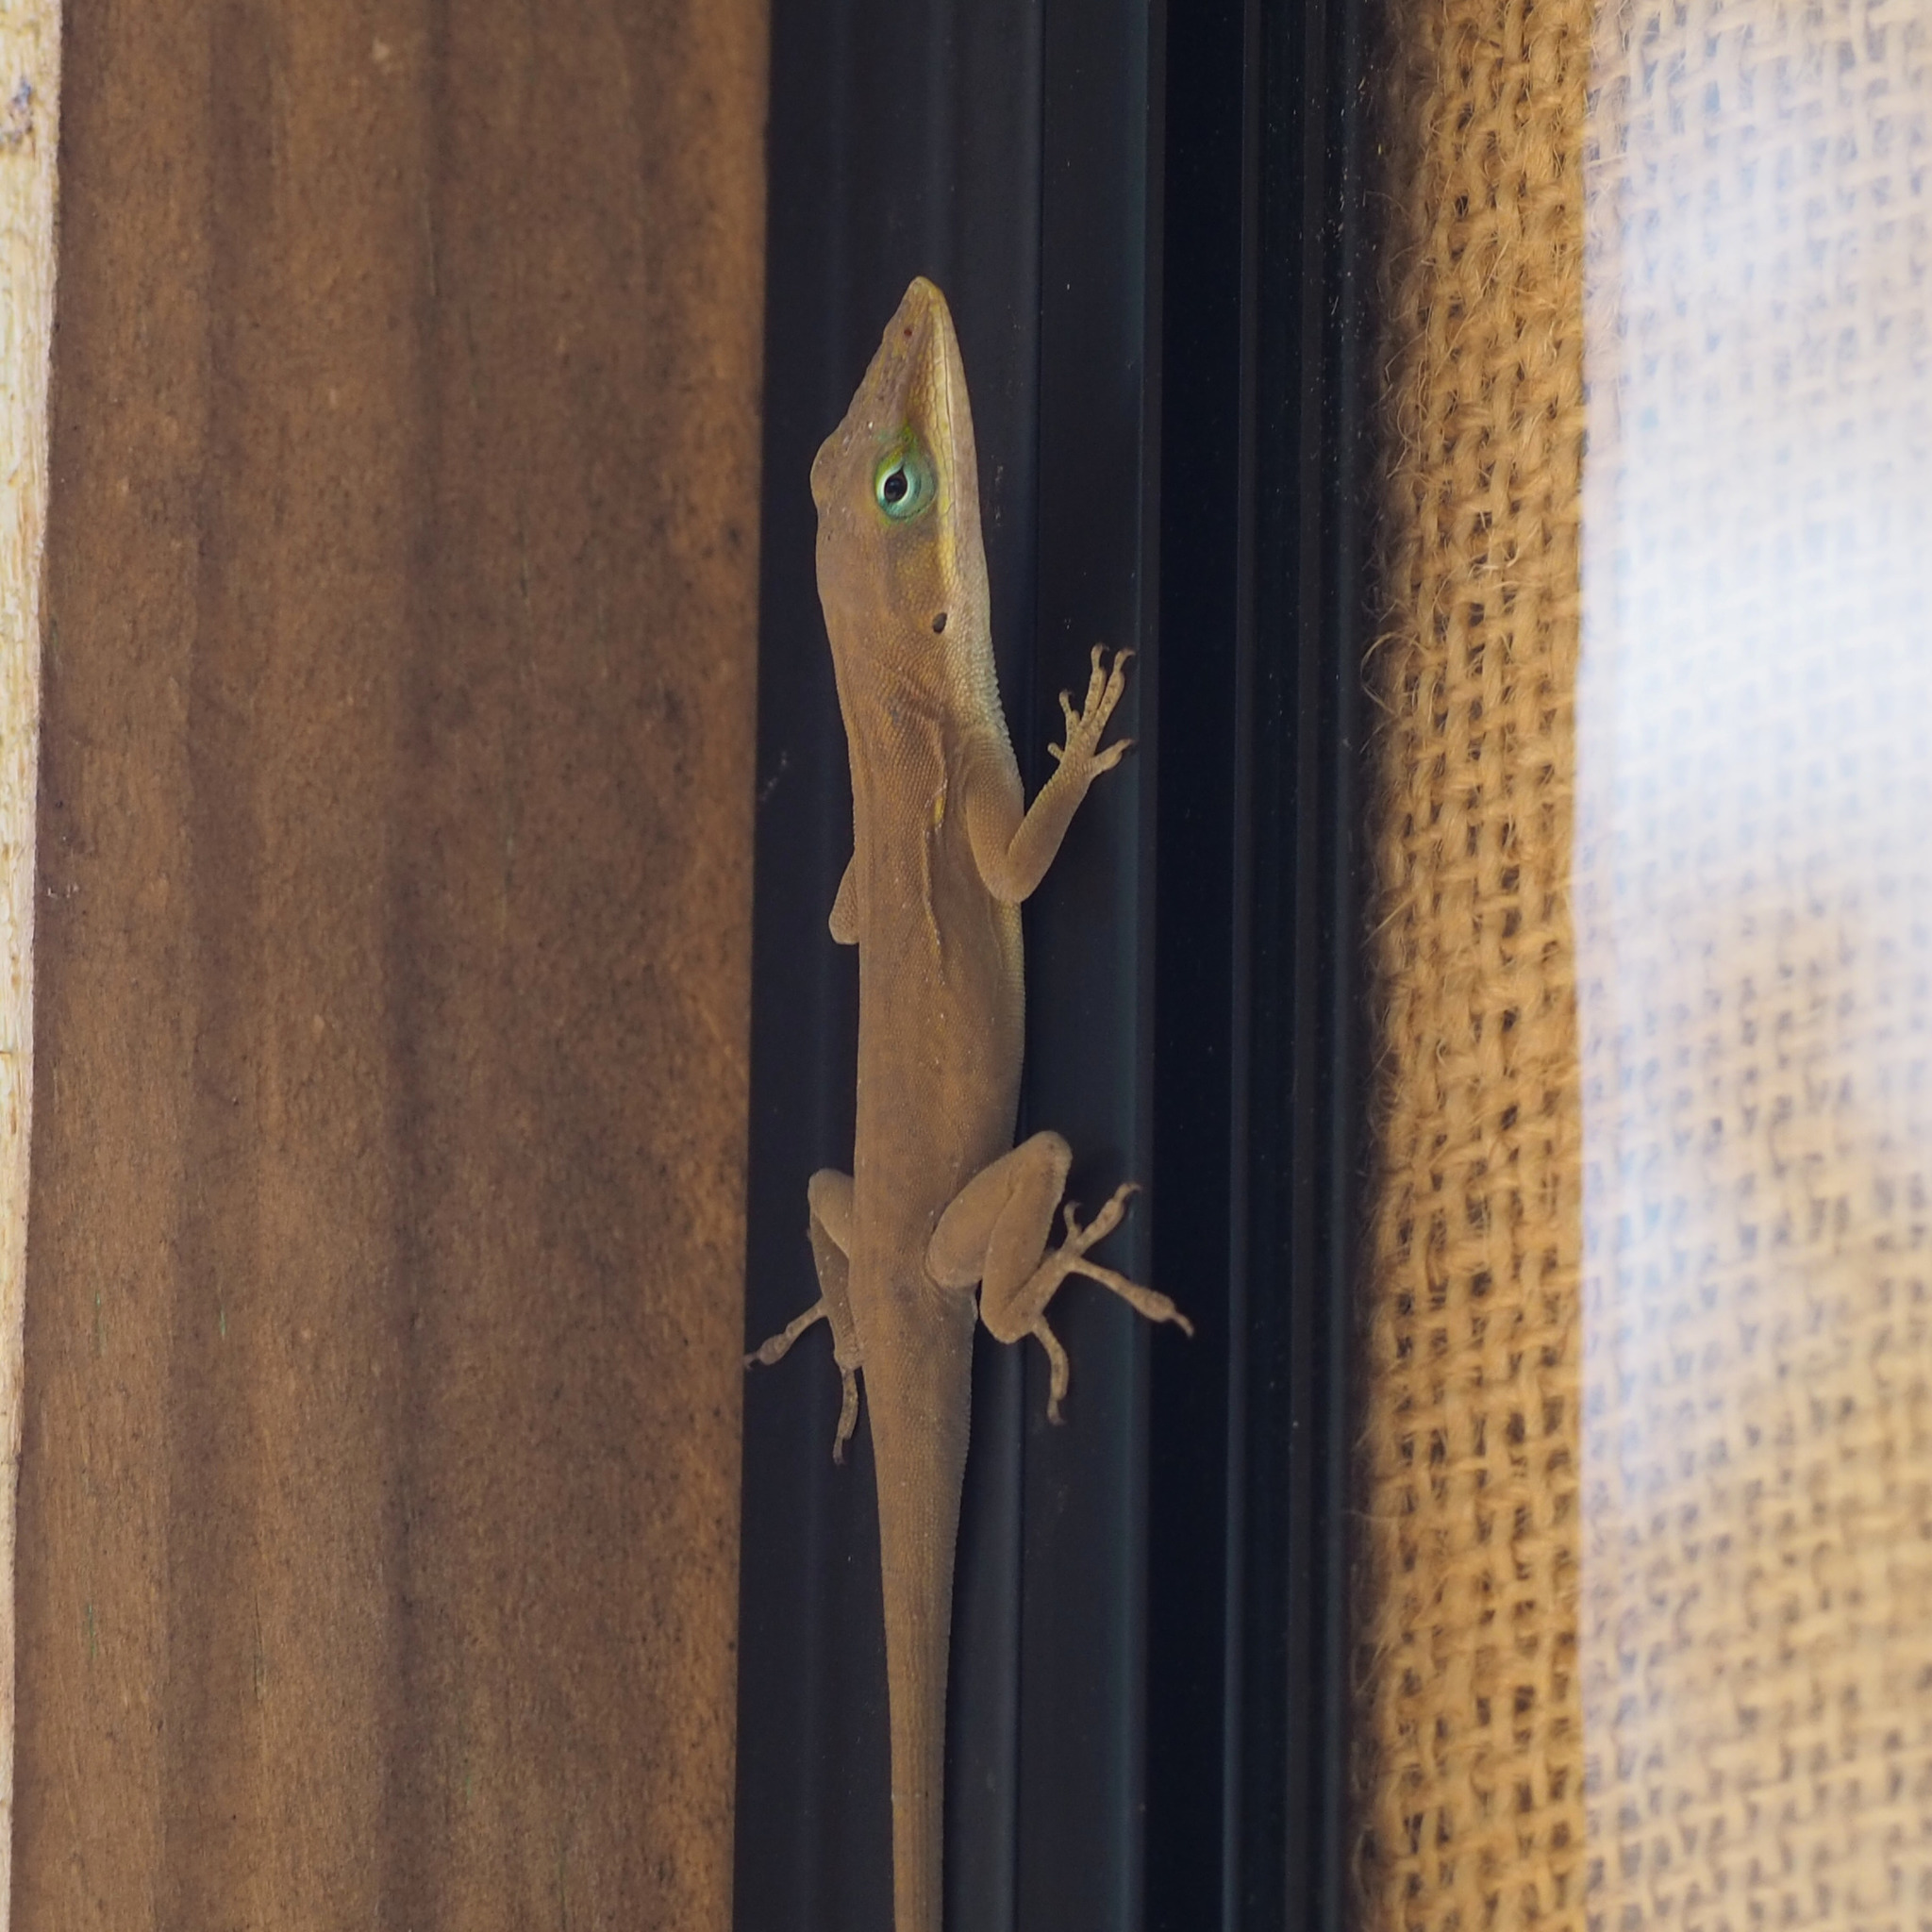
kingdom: Animalia
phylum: Chordata
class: Squamata
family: Dactyloidae
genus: Anolis
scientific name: Anolis carolinensis
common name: Green anole
